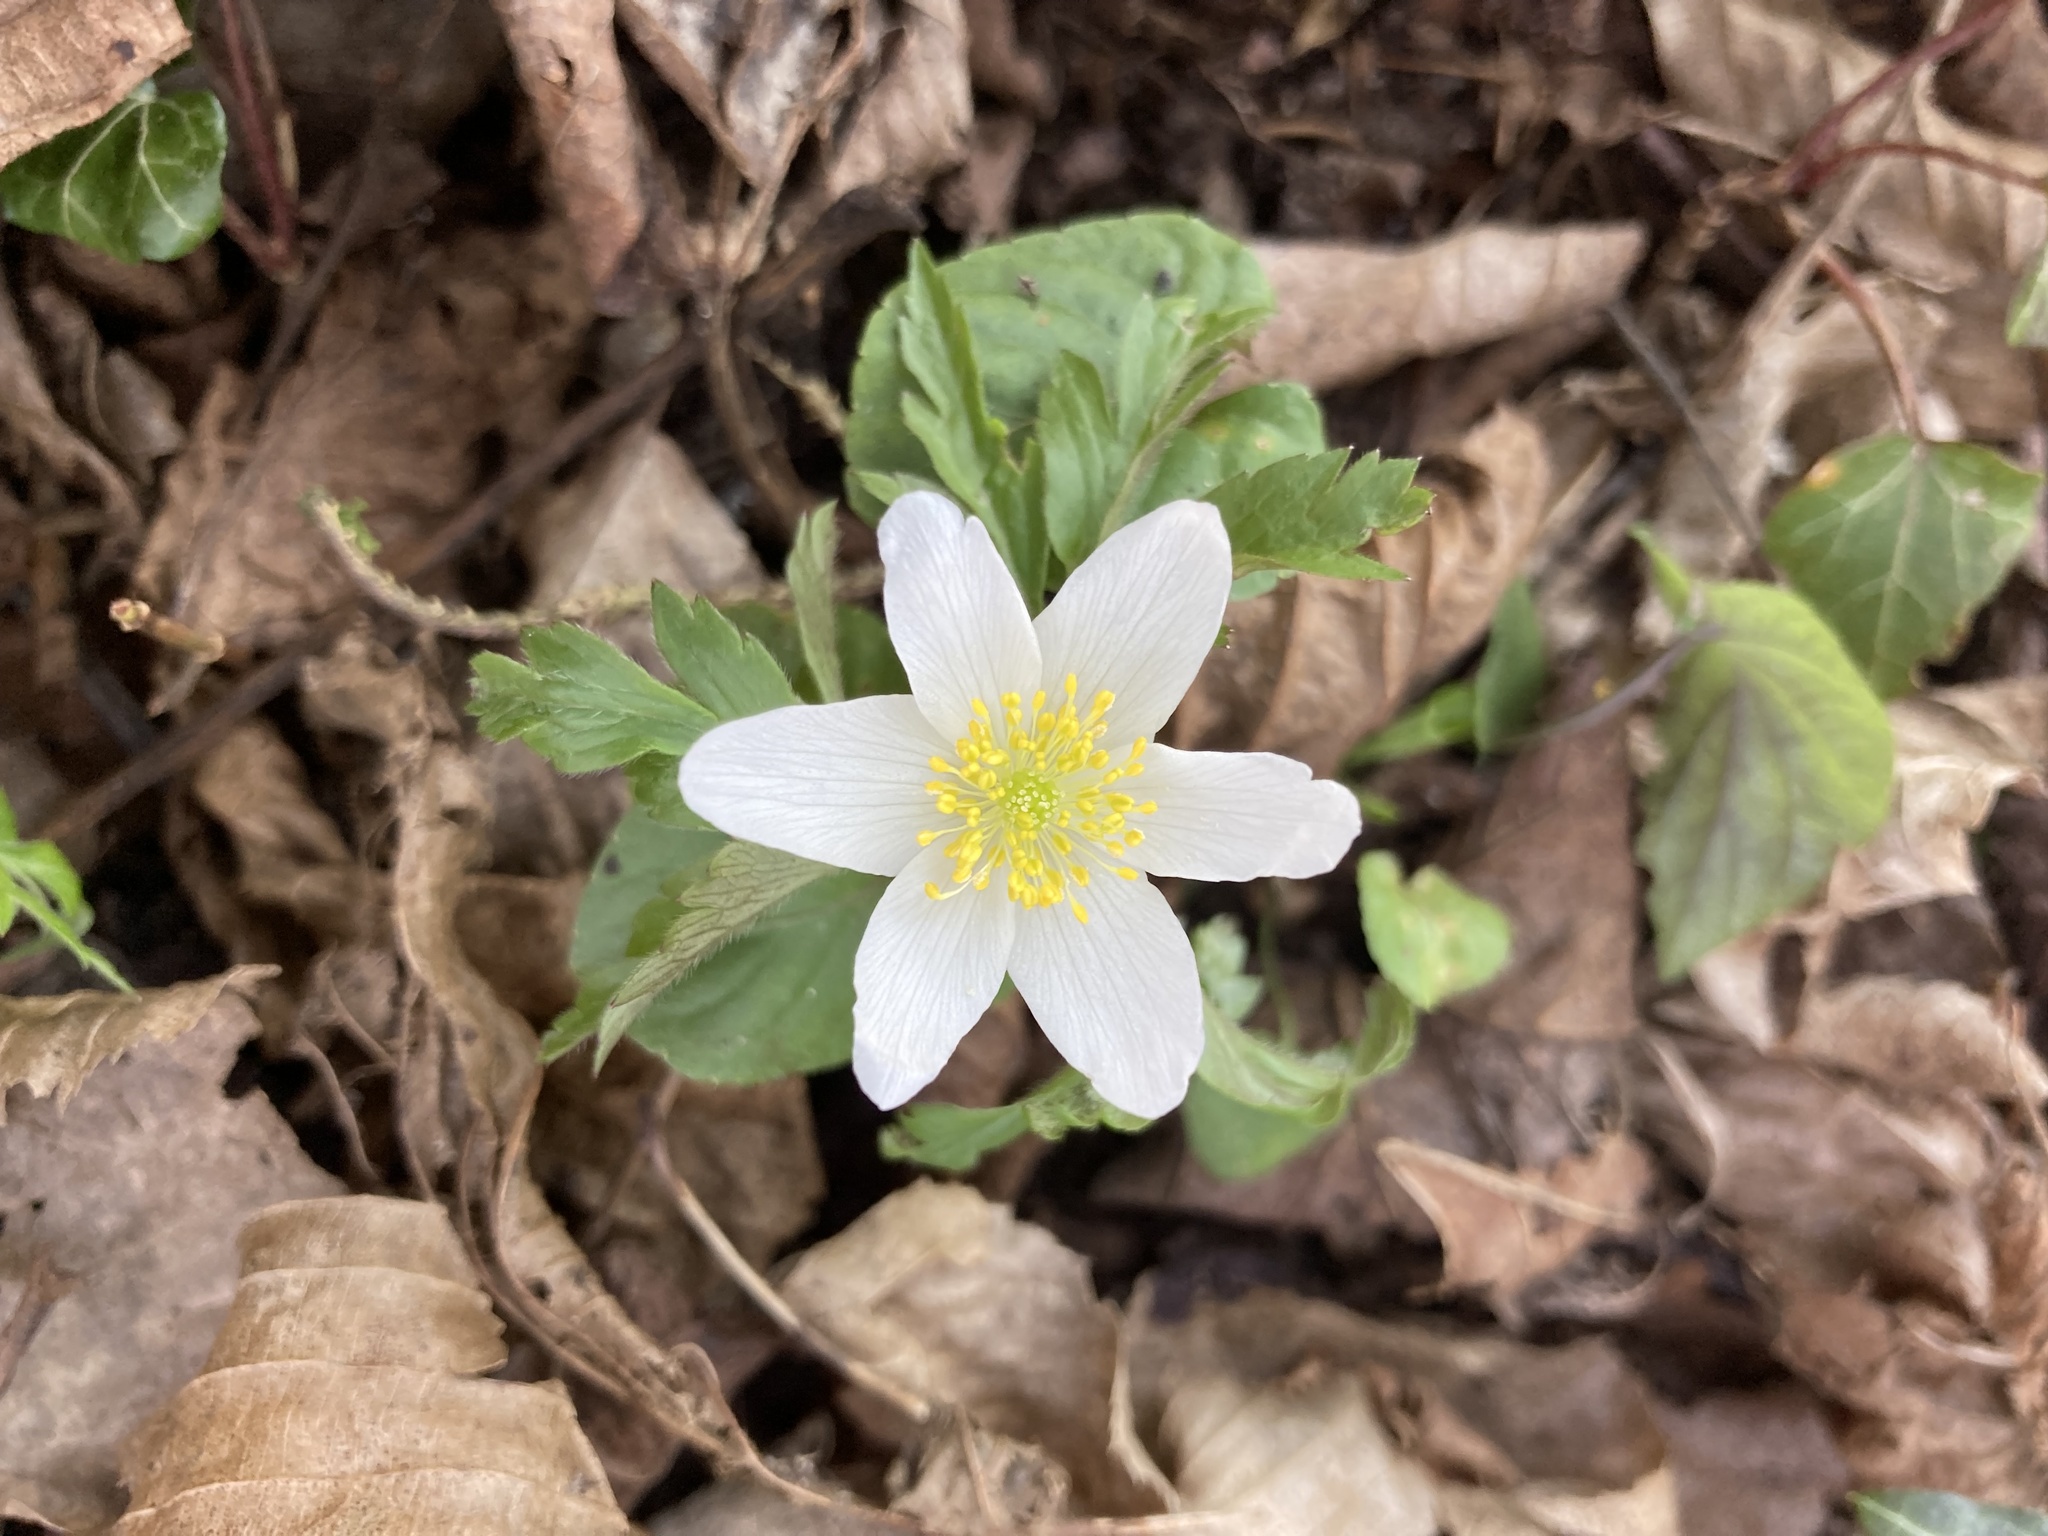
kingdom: Plantae
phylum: Tracheophyta
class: Magnoliopsida
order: Ranunculales
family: Ranunculaceae
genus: Anemone
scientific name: Anemone nemorosa
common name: Wood anemone
